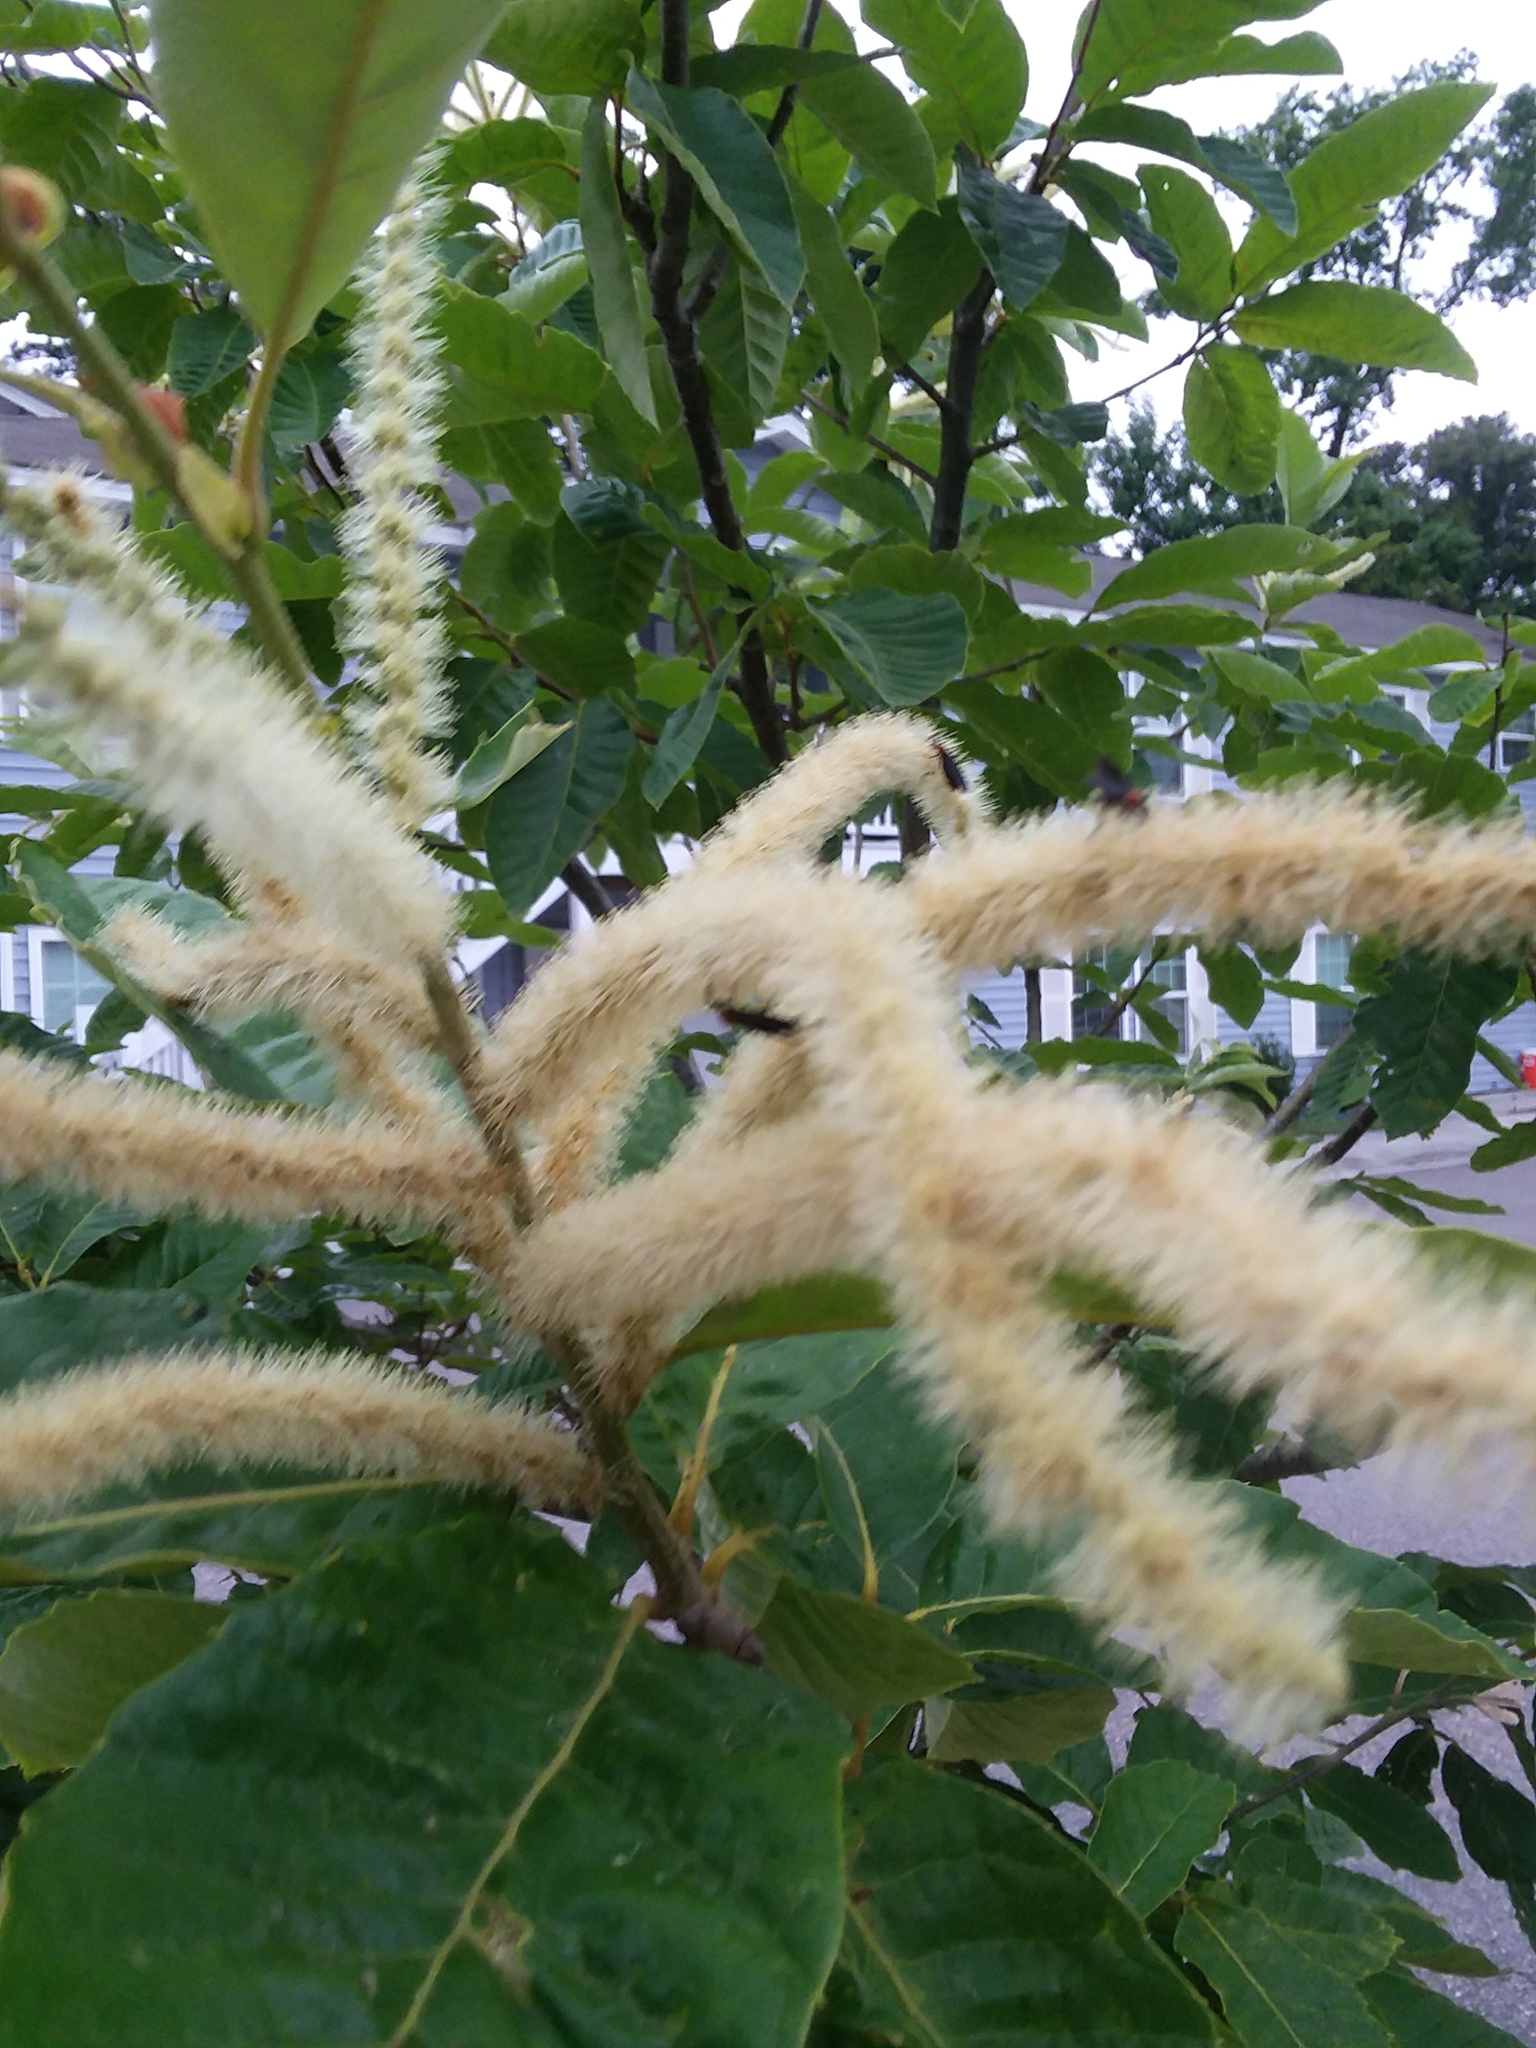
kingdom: Animalia
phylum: Arthropoda
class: Insecta
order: Diptera
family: Bibionidae
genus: Plecia
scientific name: Plecia nearctica
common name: March fly
